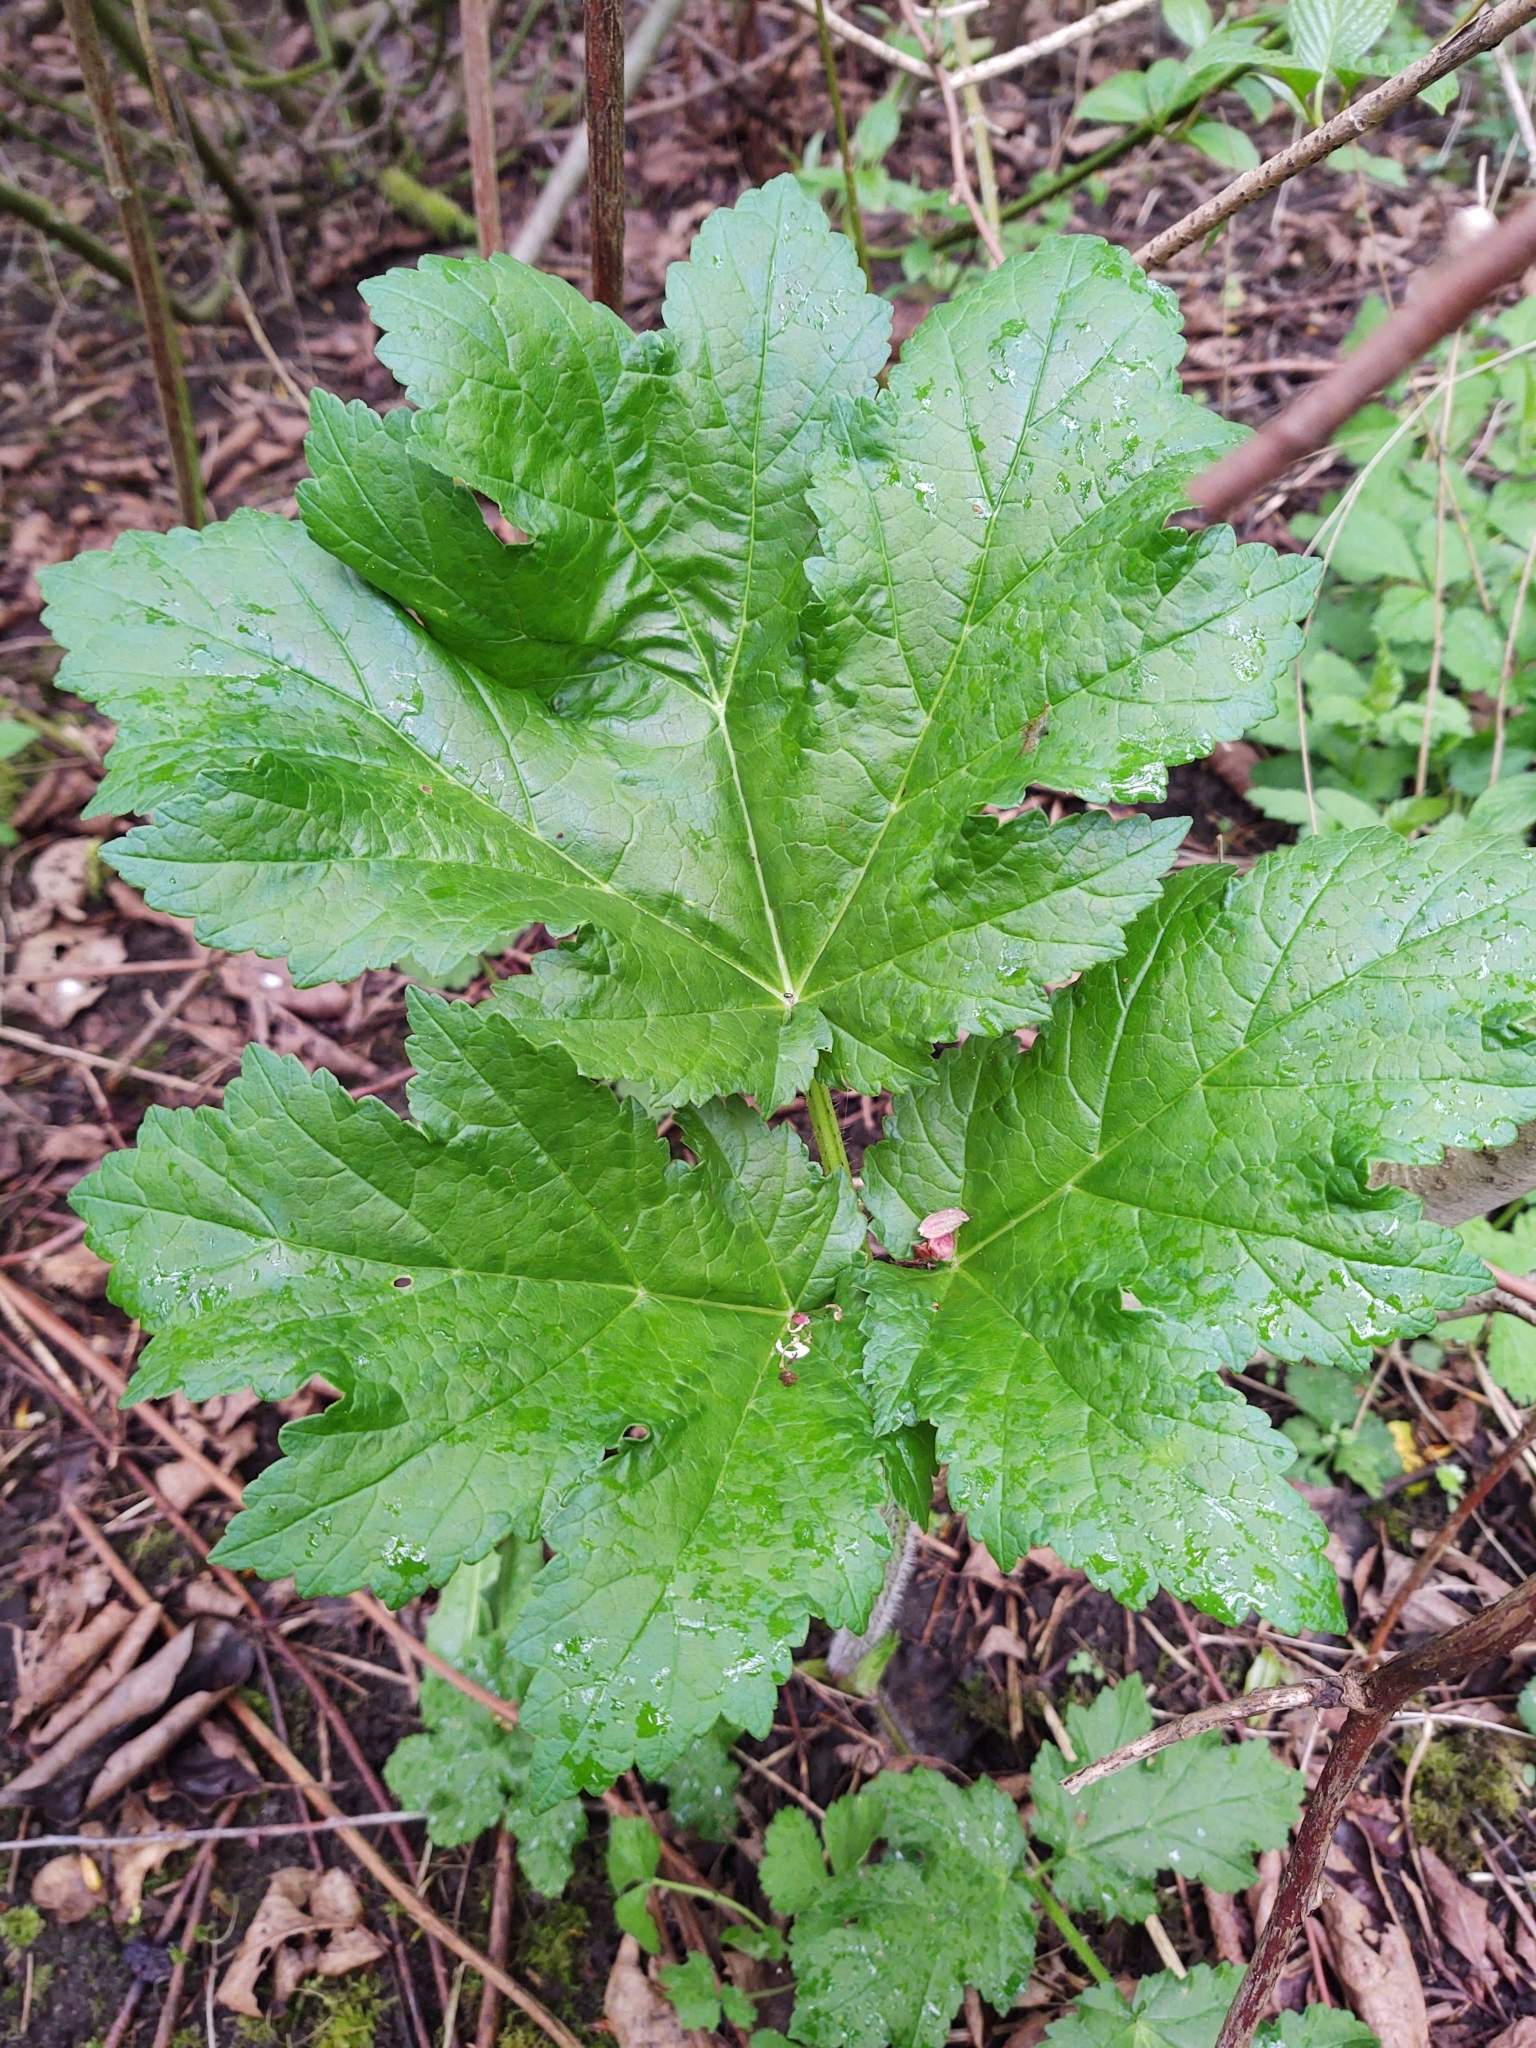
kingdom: Plantae
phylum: Tracheophyta
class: Magnoliopsida
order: Apiales
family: Apiaceae
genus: Heracleum
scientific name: Heracleum mantegazzianum
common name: Giant hogweed
